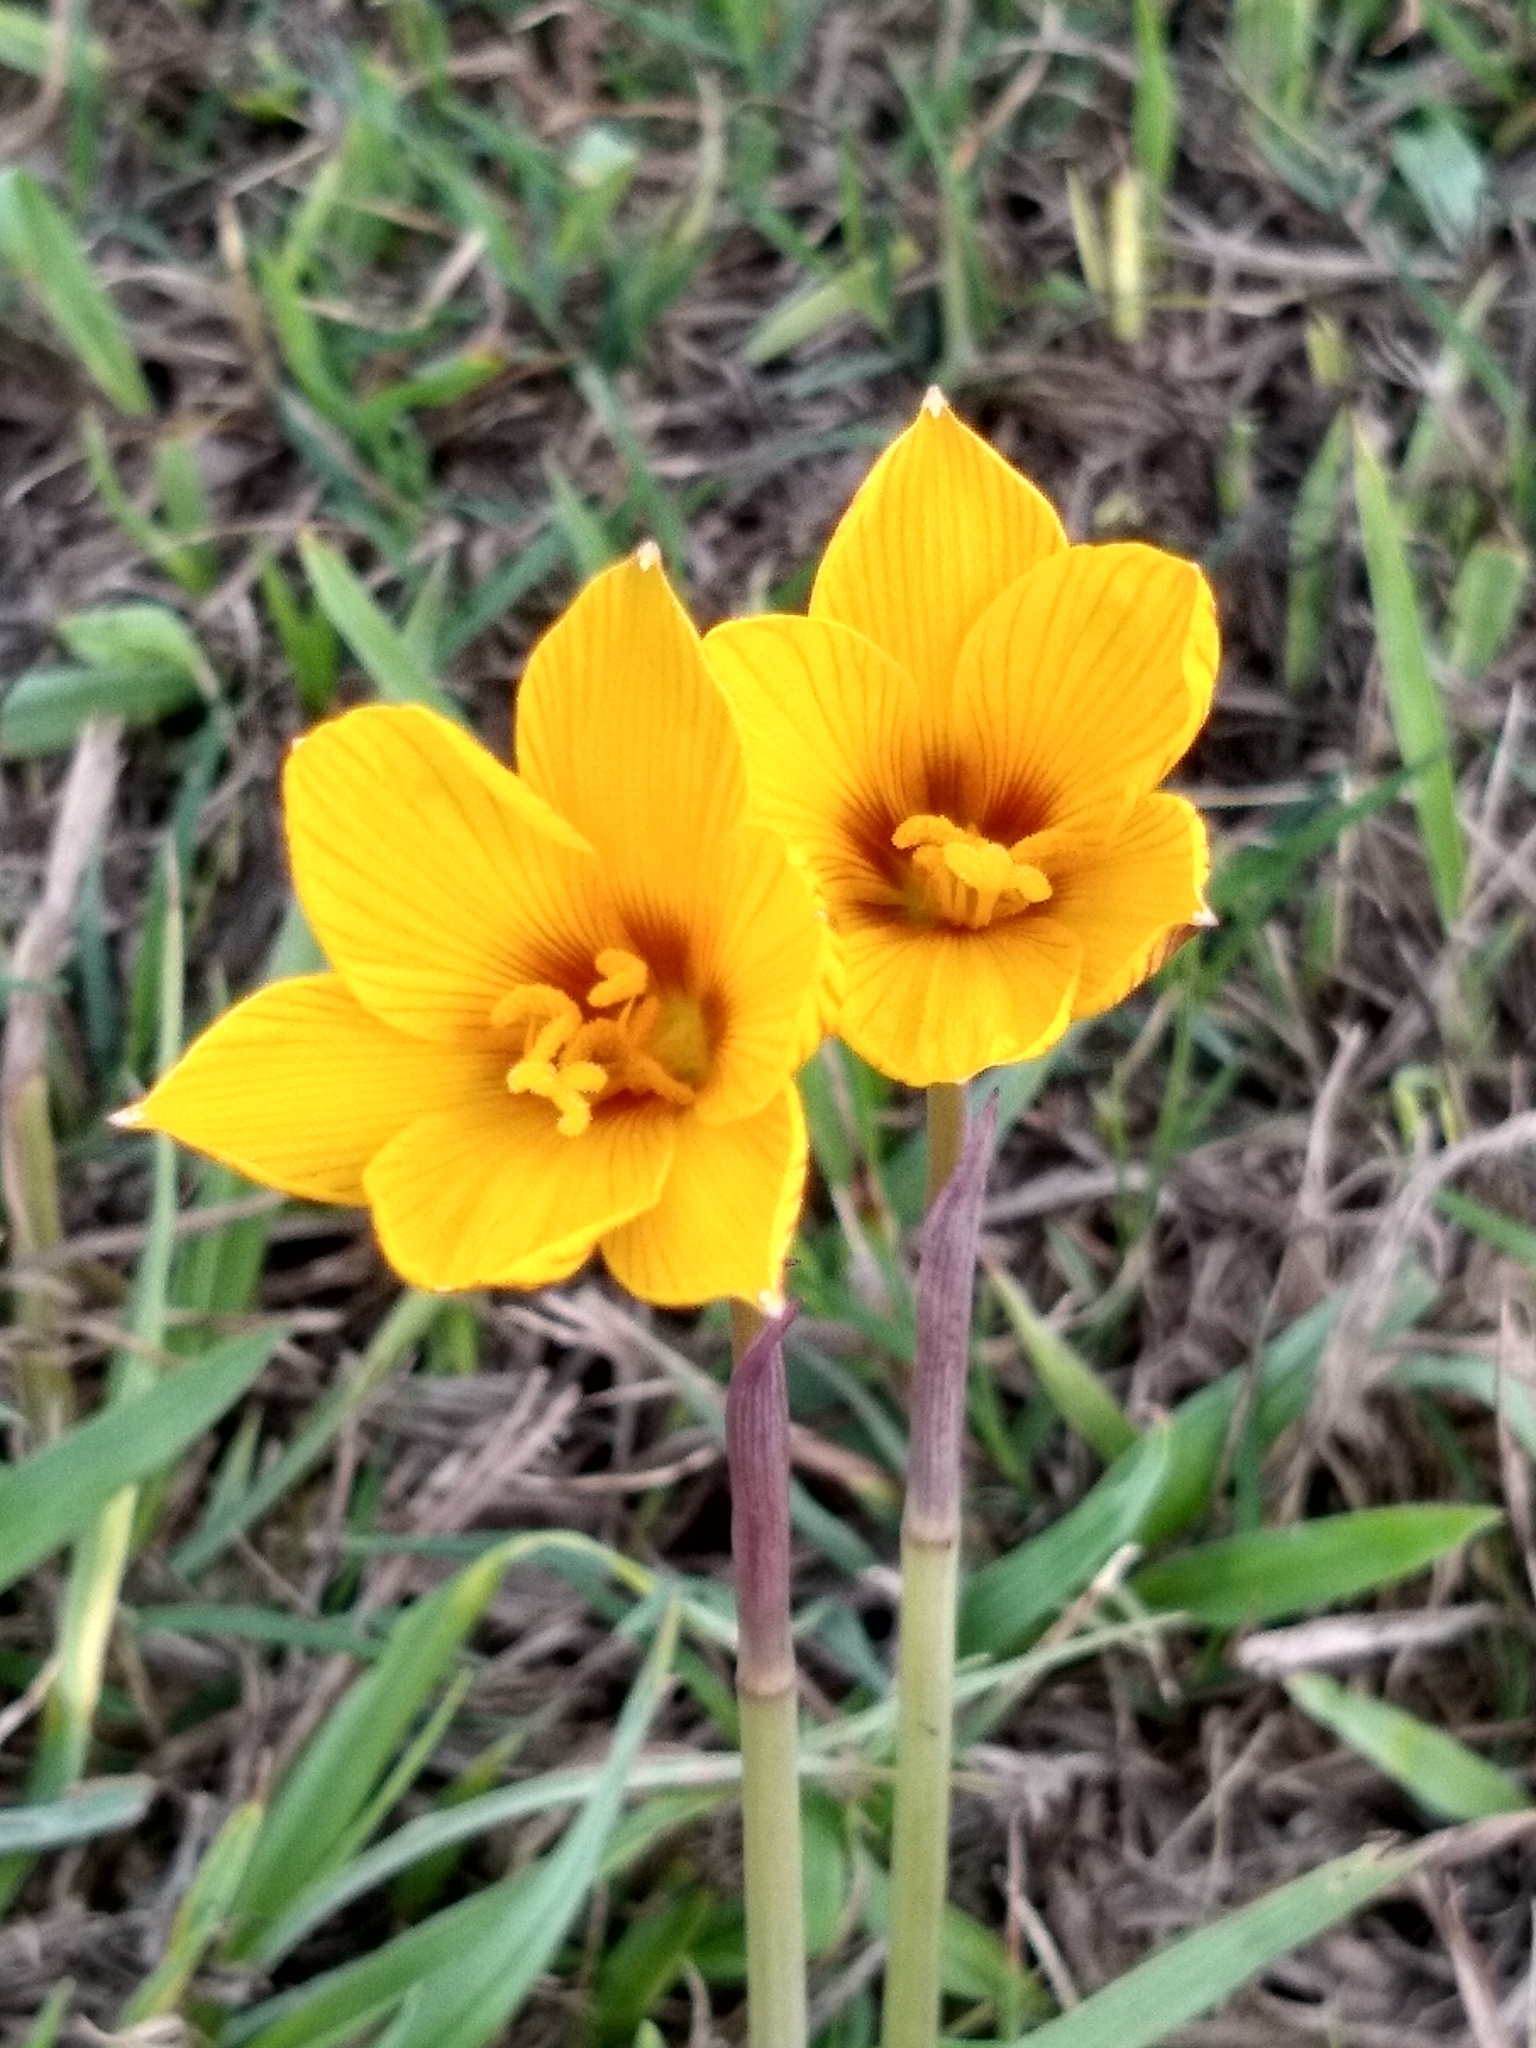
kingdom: Plantae
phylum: Tracheophyta
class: Liliopsida
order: Asparagales
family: Amaryllidaceae
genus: Zephyranthes
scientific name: Zephyranthes tubispatha
